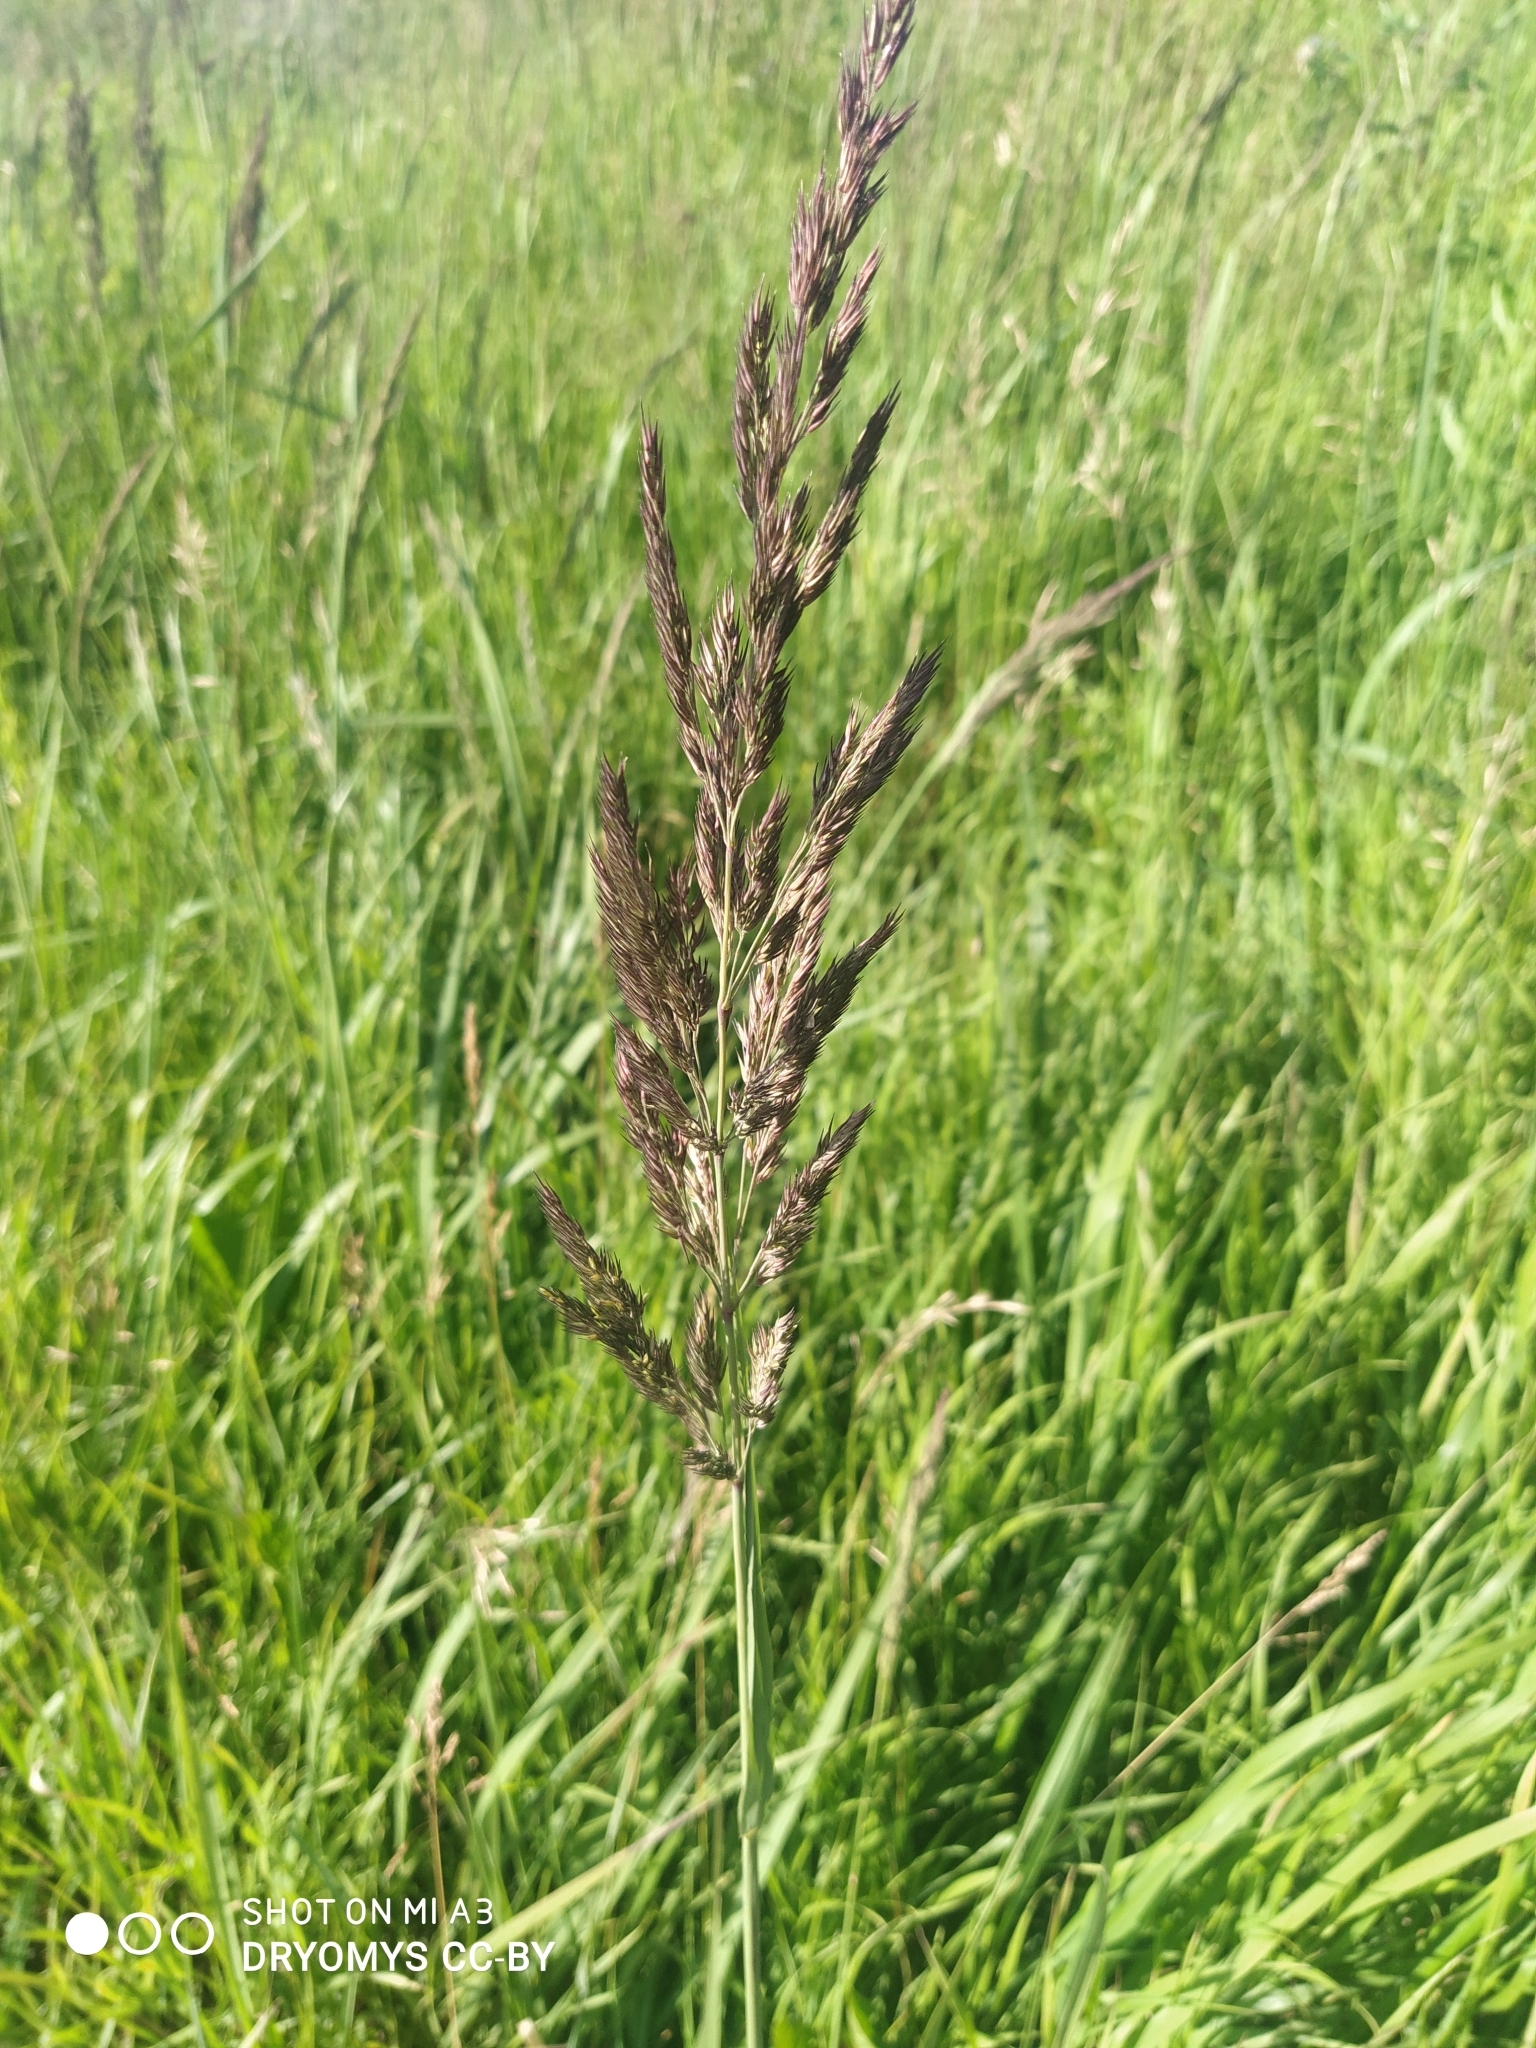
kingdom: Plantae
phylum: Tracheophyta
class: Liliopsida
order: Poales
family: Poaceae
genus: Calamagrostis
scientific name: Calamagrostis epigejos
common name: Wood small-reed
